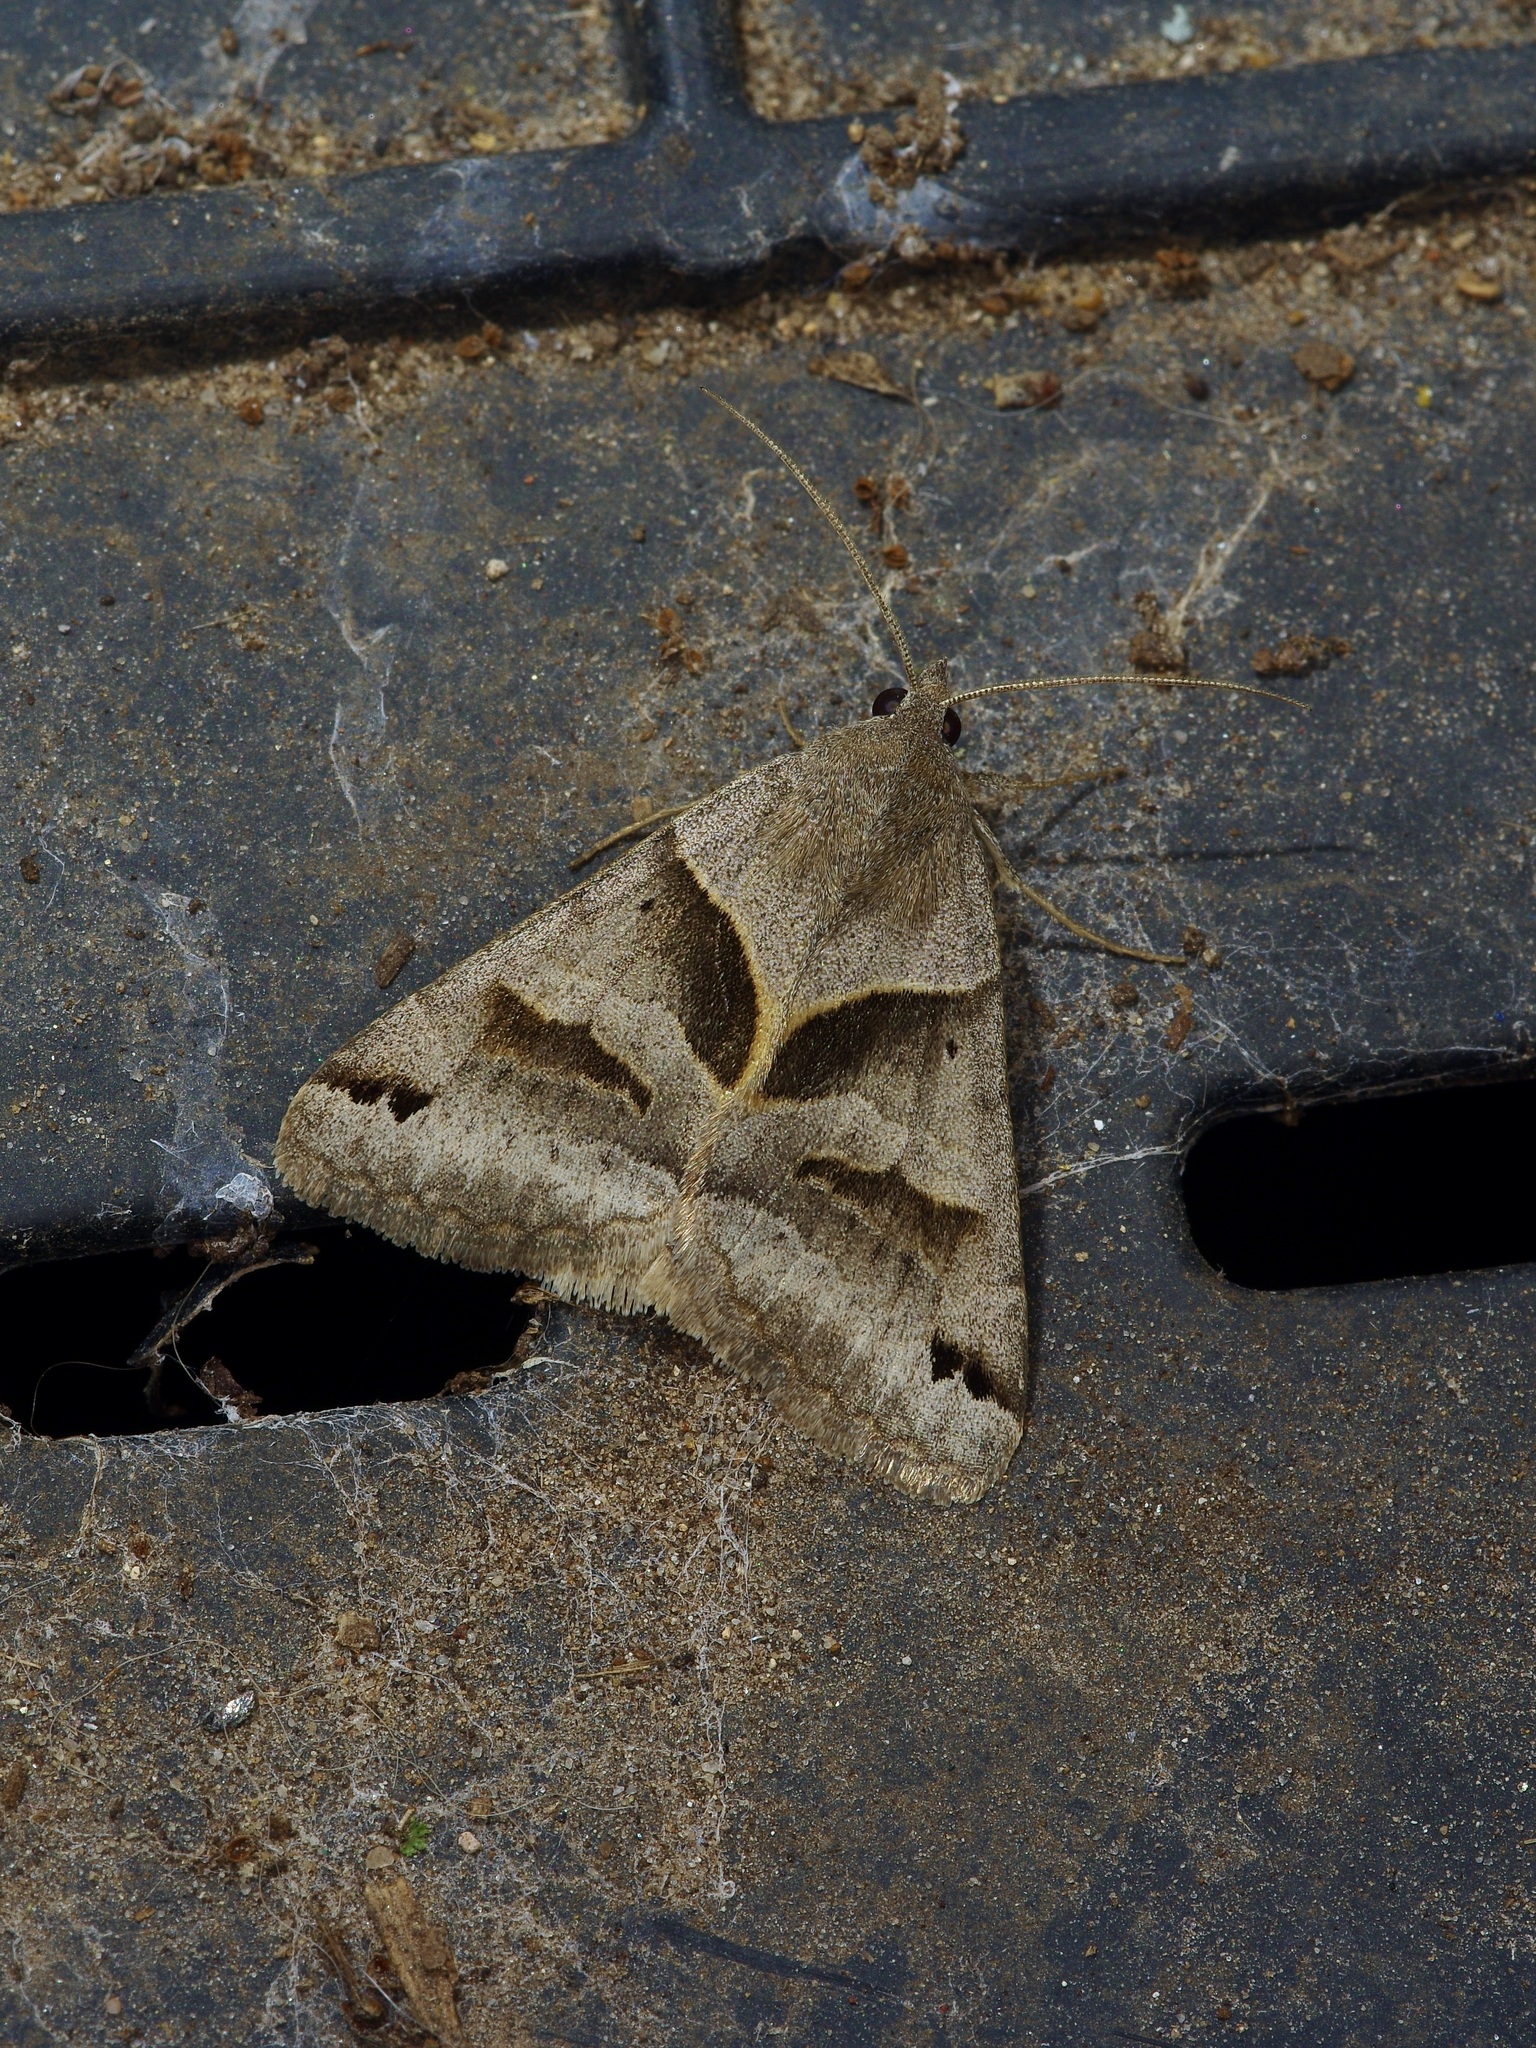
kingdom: Animalia
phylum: Arthropoda
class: Insecta
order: Lepidoptera
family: Erebidae
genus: Caenurgina
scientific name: Caenurgina erechtea
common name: Forage looper moth
